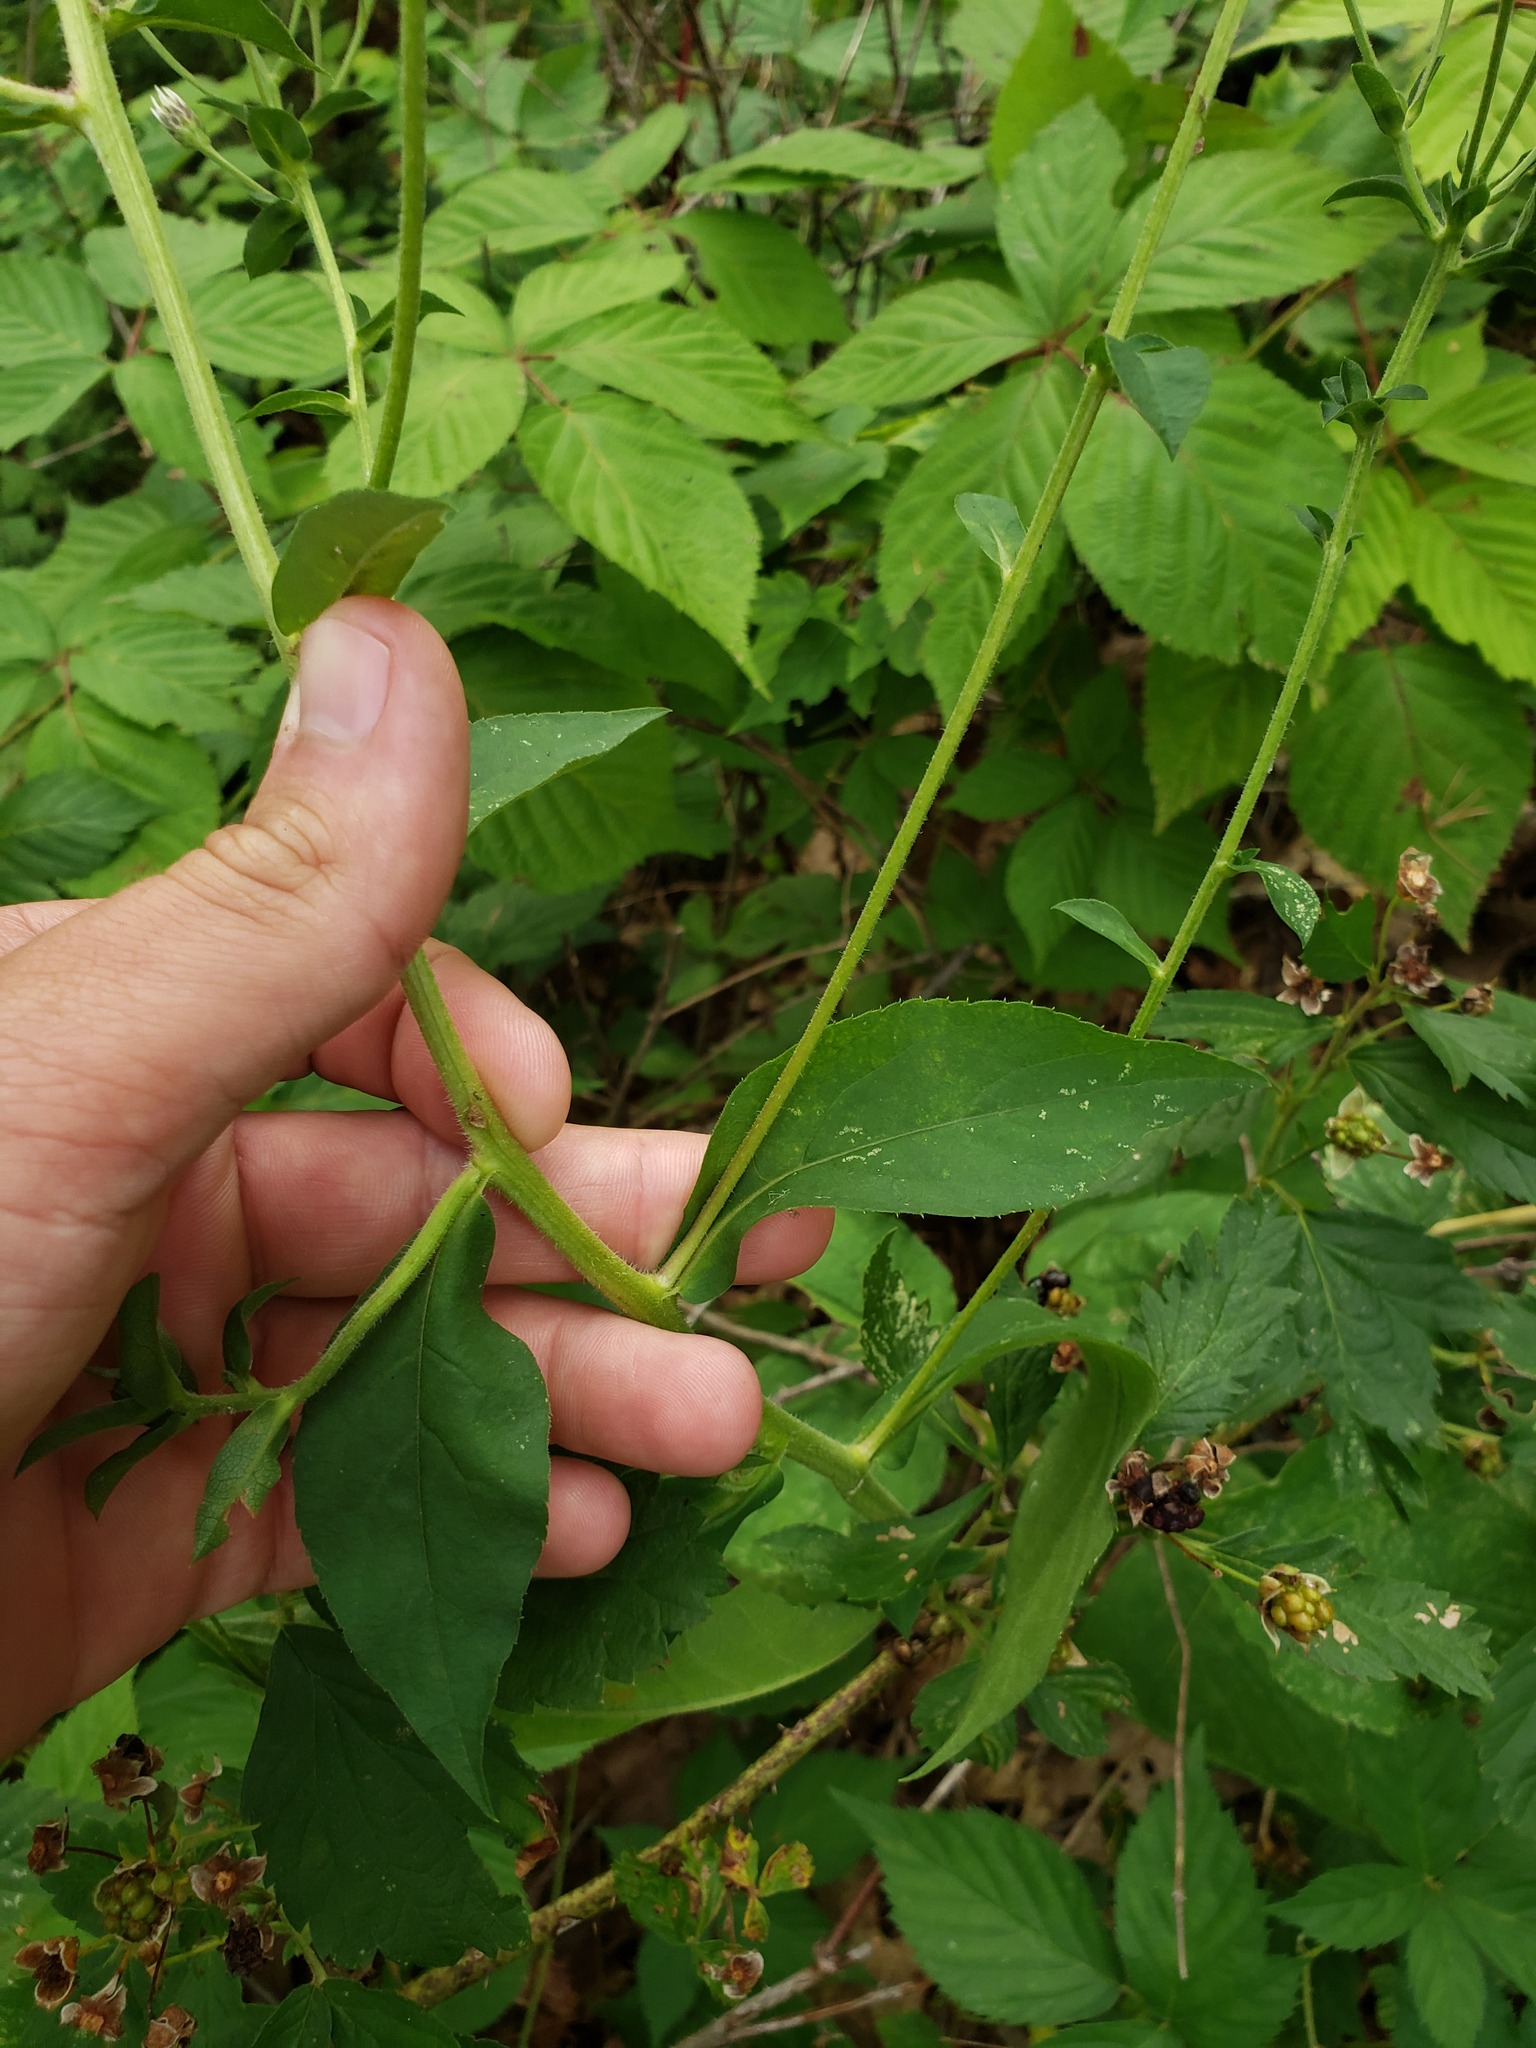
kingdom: Plantae
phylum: Tracheophyta
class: Magnoliopsida
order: Asterales
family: Asteraceae
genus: Eurybia
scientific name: Eurybia macrophylla
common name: Big-leaved aster
